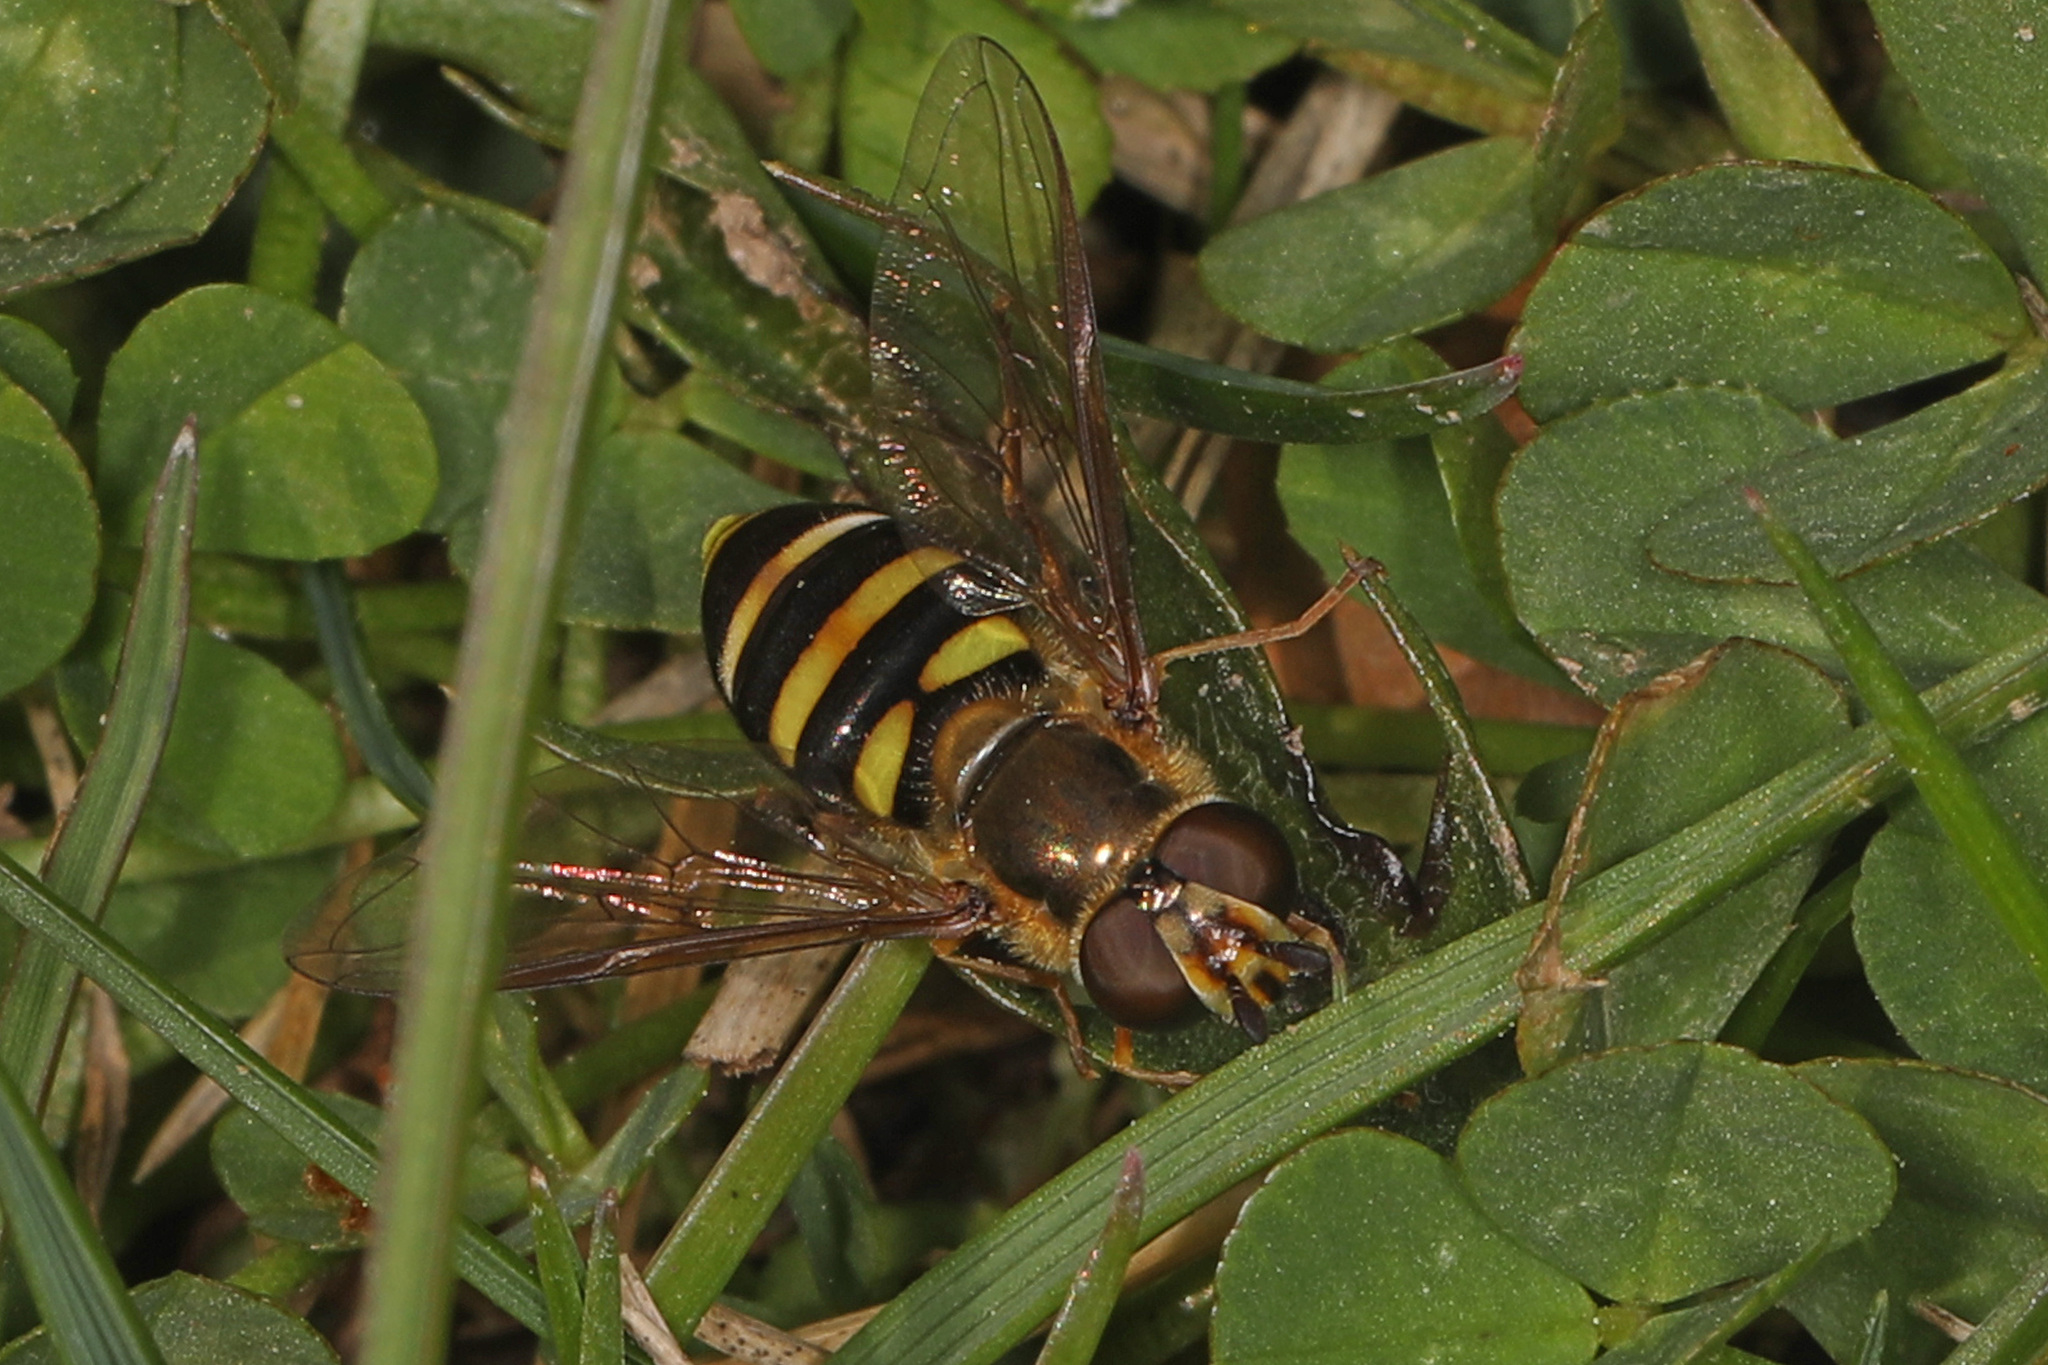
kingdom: Animalia
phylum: Arthropoda
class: Insecta
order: Diptera
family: Syrphidae
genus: Eupeodes
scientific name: Eupeodes
